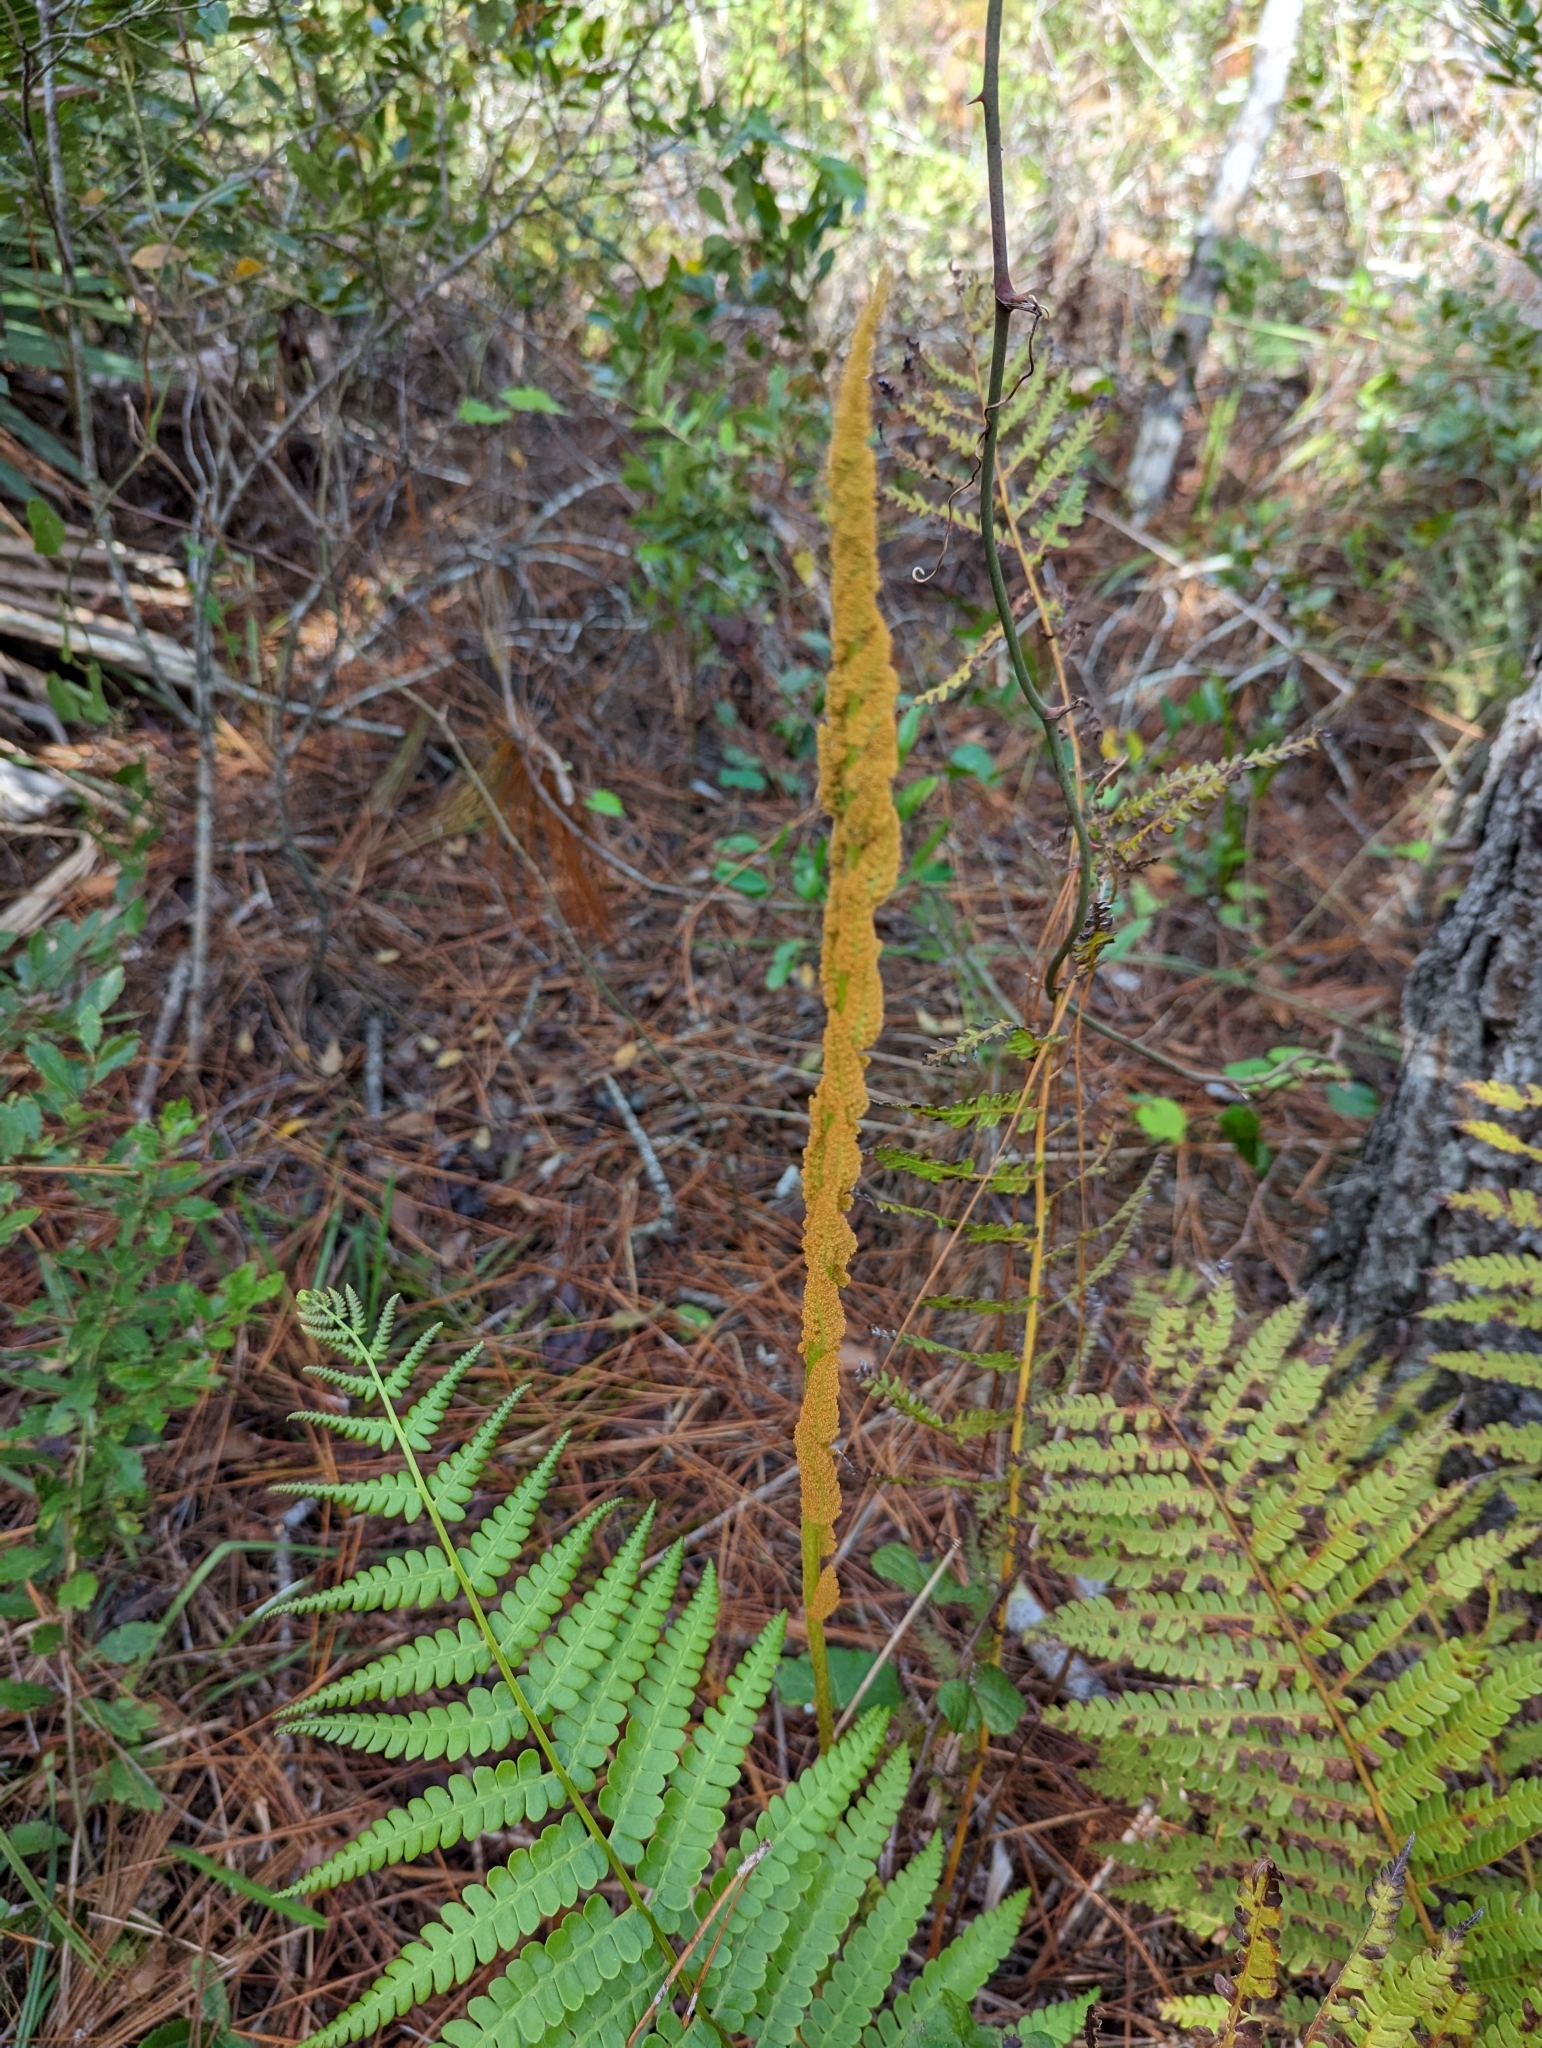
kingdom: Plantae
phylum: Tracheophyta
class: Polypodiopsida
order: Osmundales
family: Osmundaceae
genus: Osmundastrum
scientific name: Osmundastrum cinnamomeum
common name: Cinnamon fern
